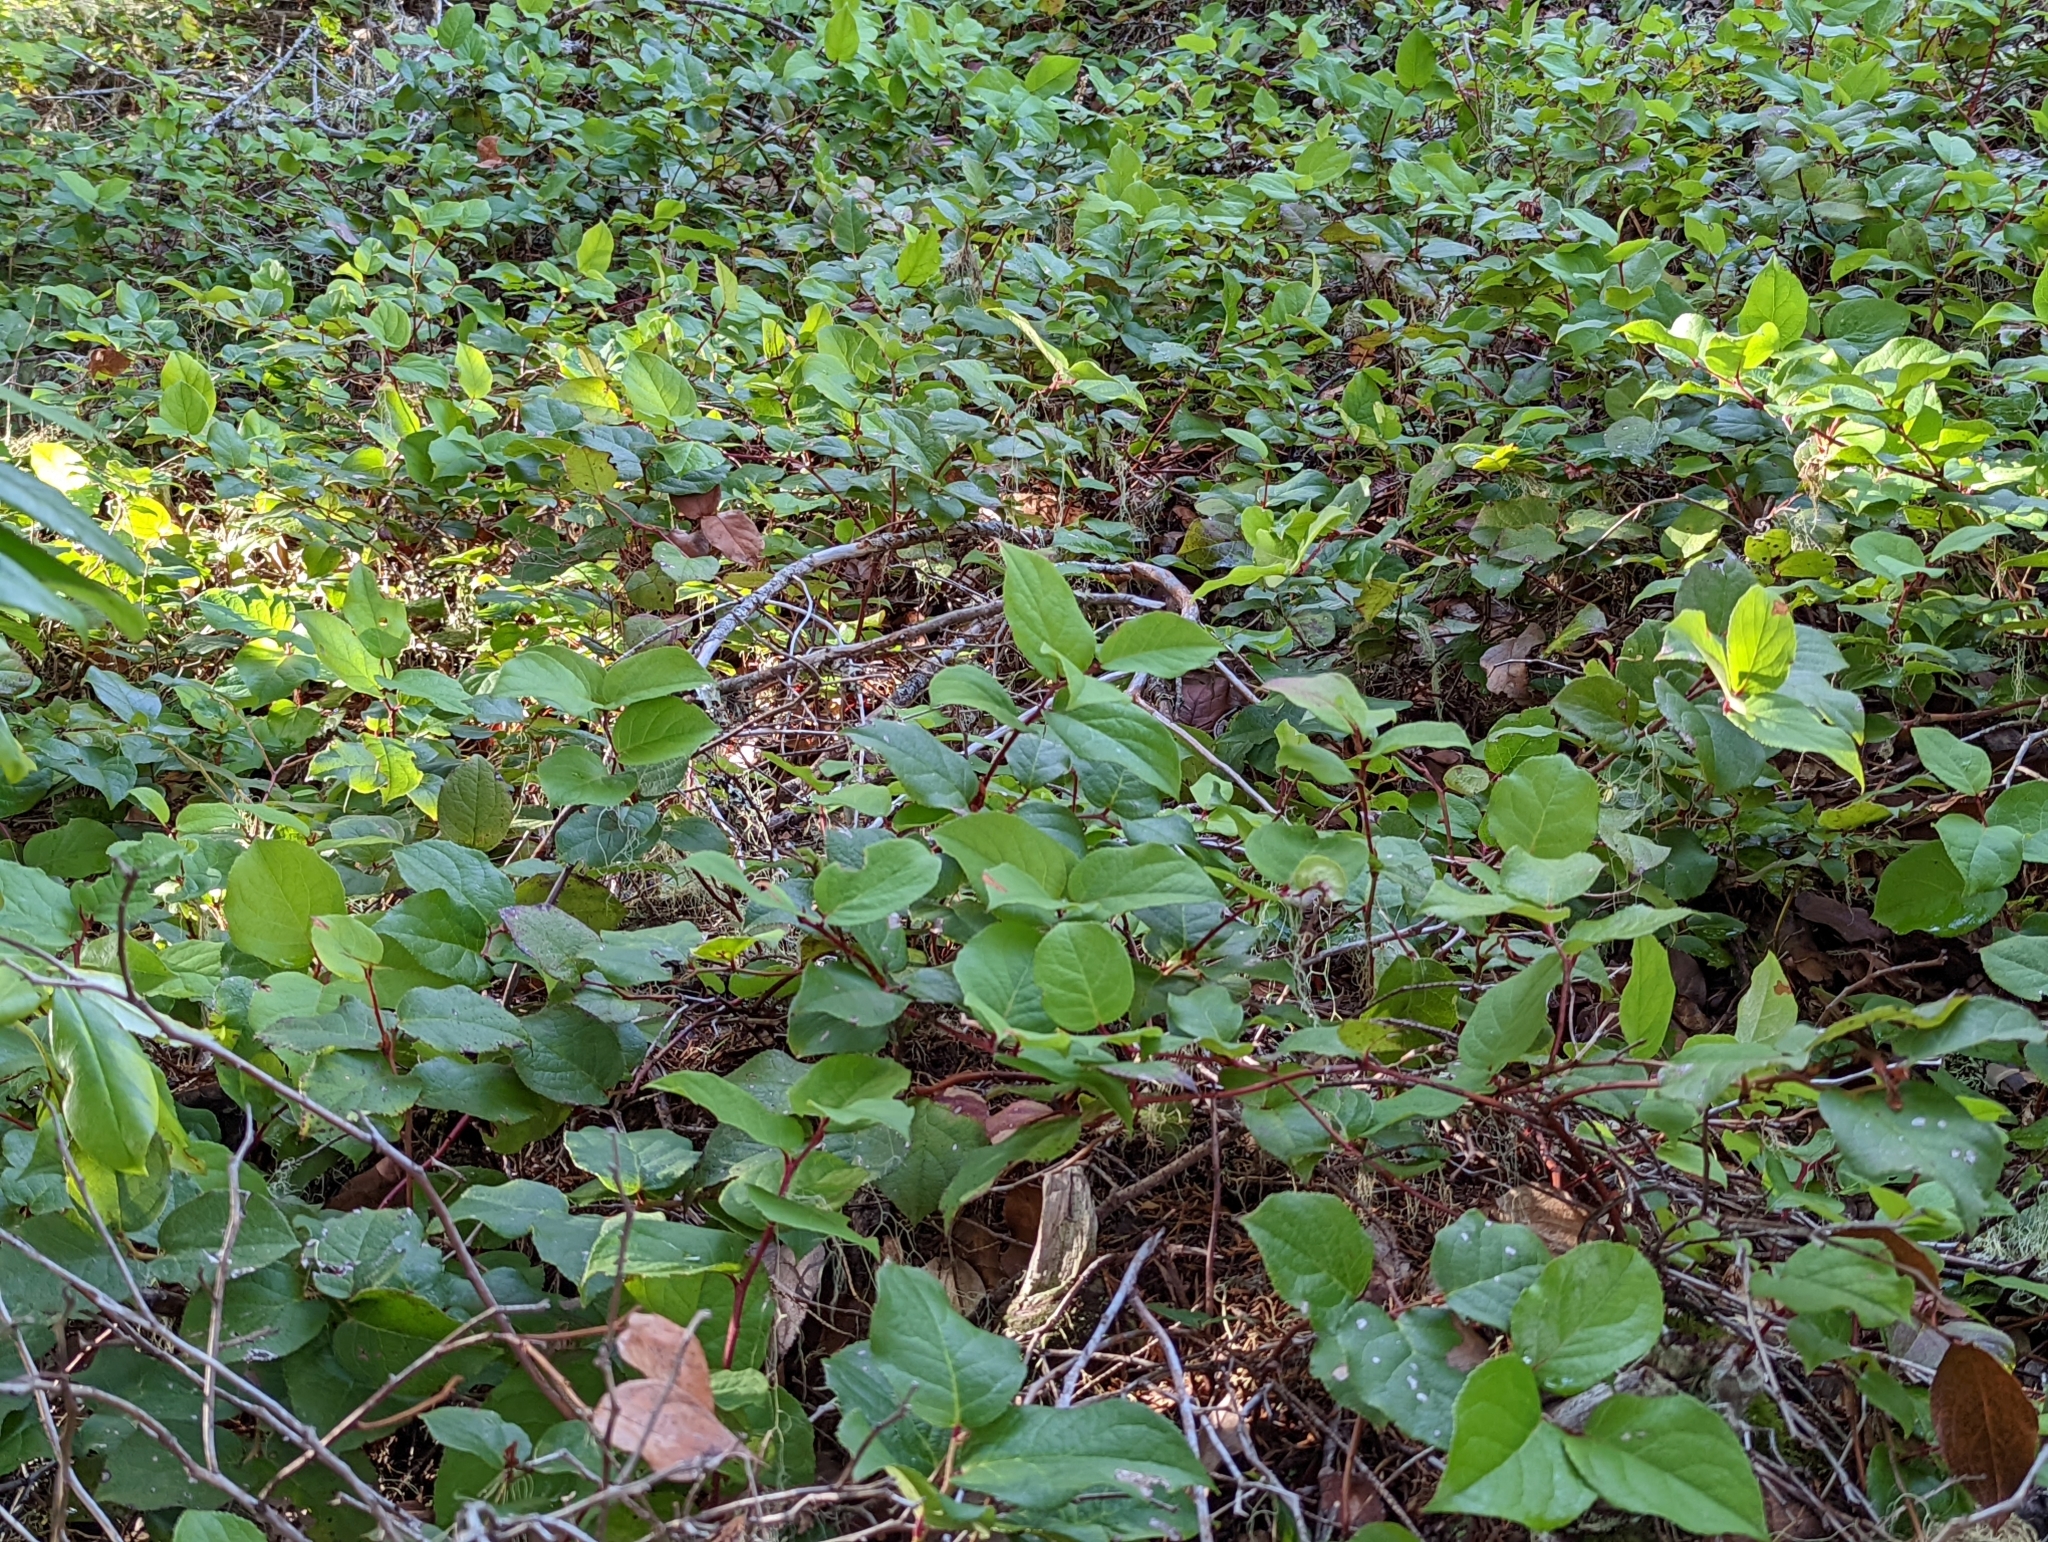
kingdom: Plantae
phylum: Tracheophyta
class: Magnoliopsida
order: Ericales
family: Ericaceae
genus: Gaultheria
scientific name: Gaultheria shallon
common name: Shallon
